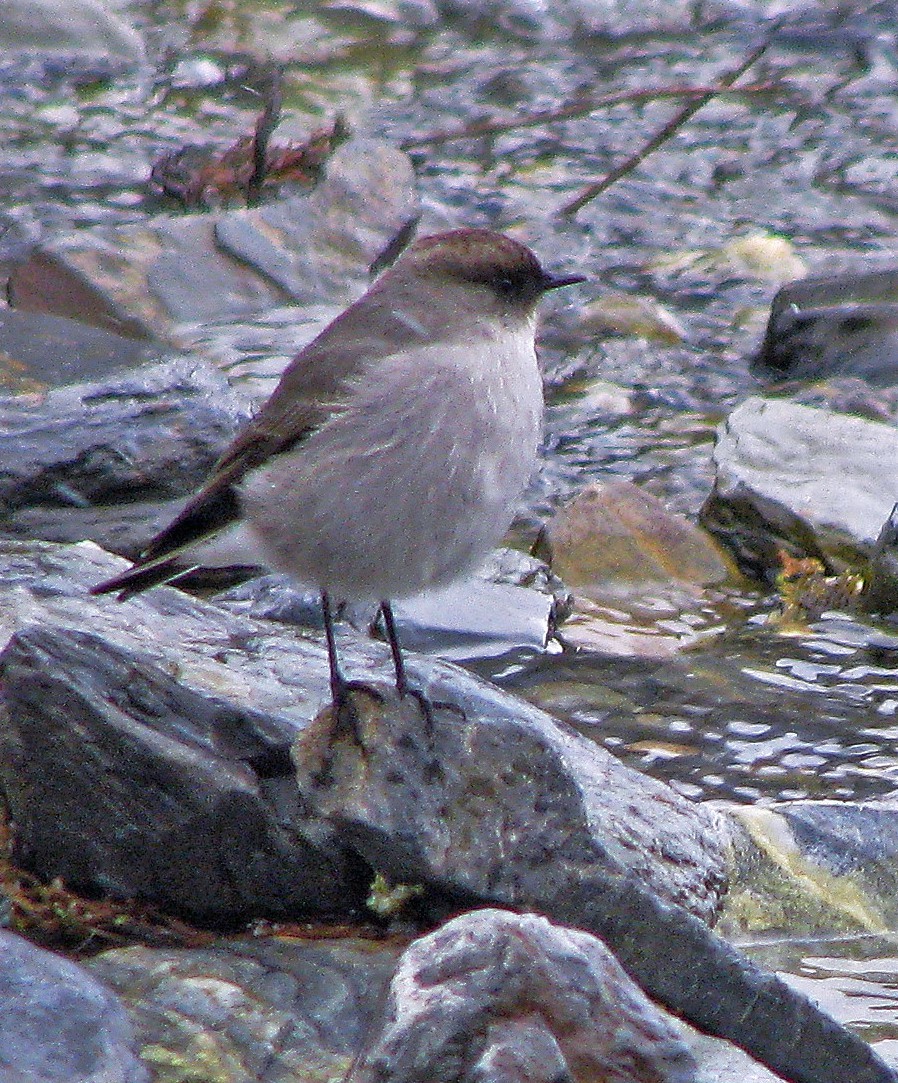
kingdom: Animalia
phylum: Chordata
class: Aves
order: Passeriformes
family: Tyrannidae
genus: Muscisaxicola
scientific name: Muscisaxicola maclovianus
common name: Dark-faced ground tyrant
